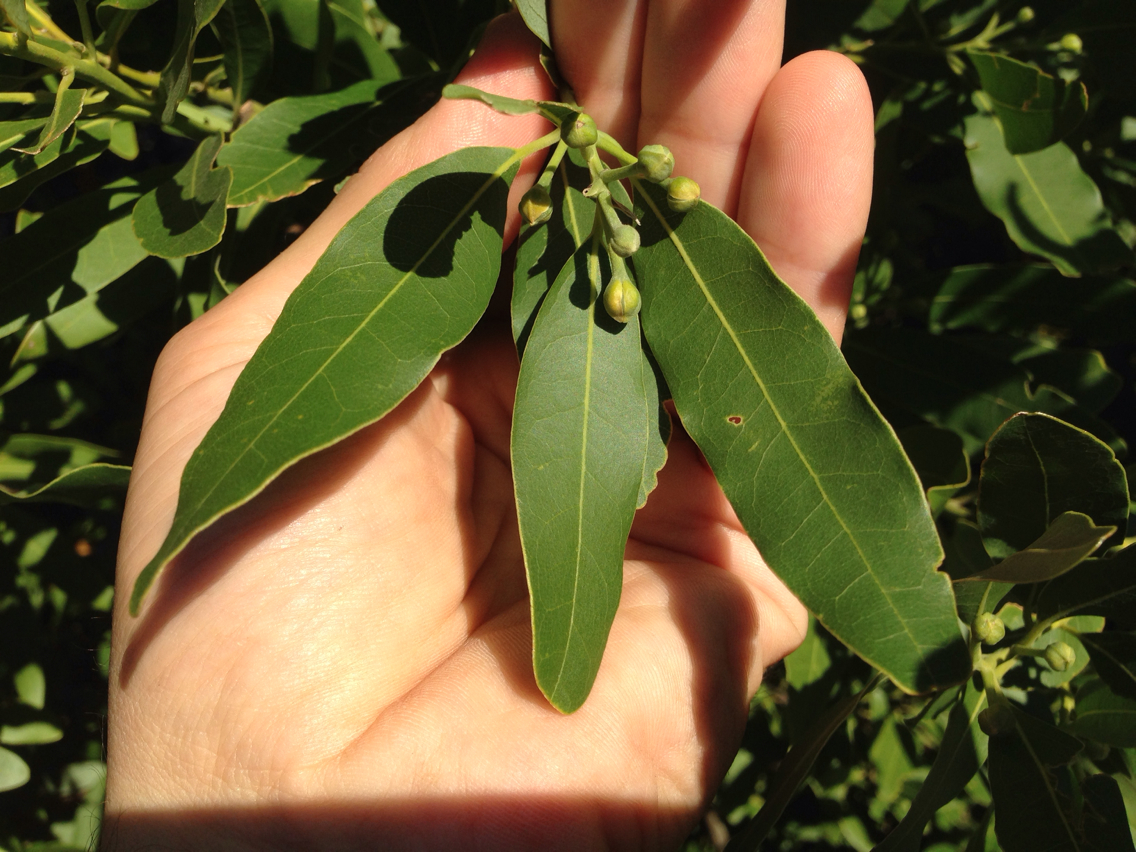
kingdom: Plantae
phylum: Tracheophyta
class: Magnoliopsida
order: Laurales
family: Lauraceae
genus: Umbellularia
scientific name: Umbellularia californica
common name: California bay
